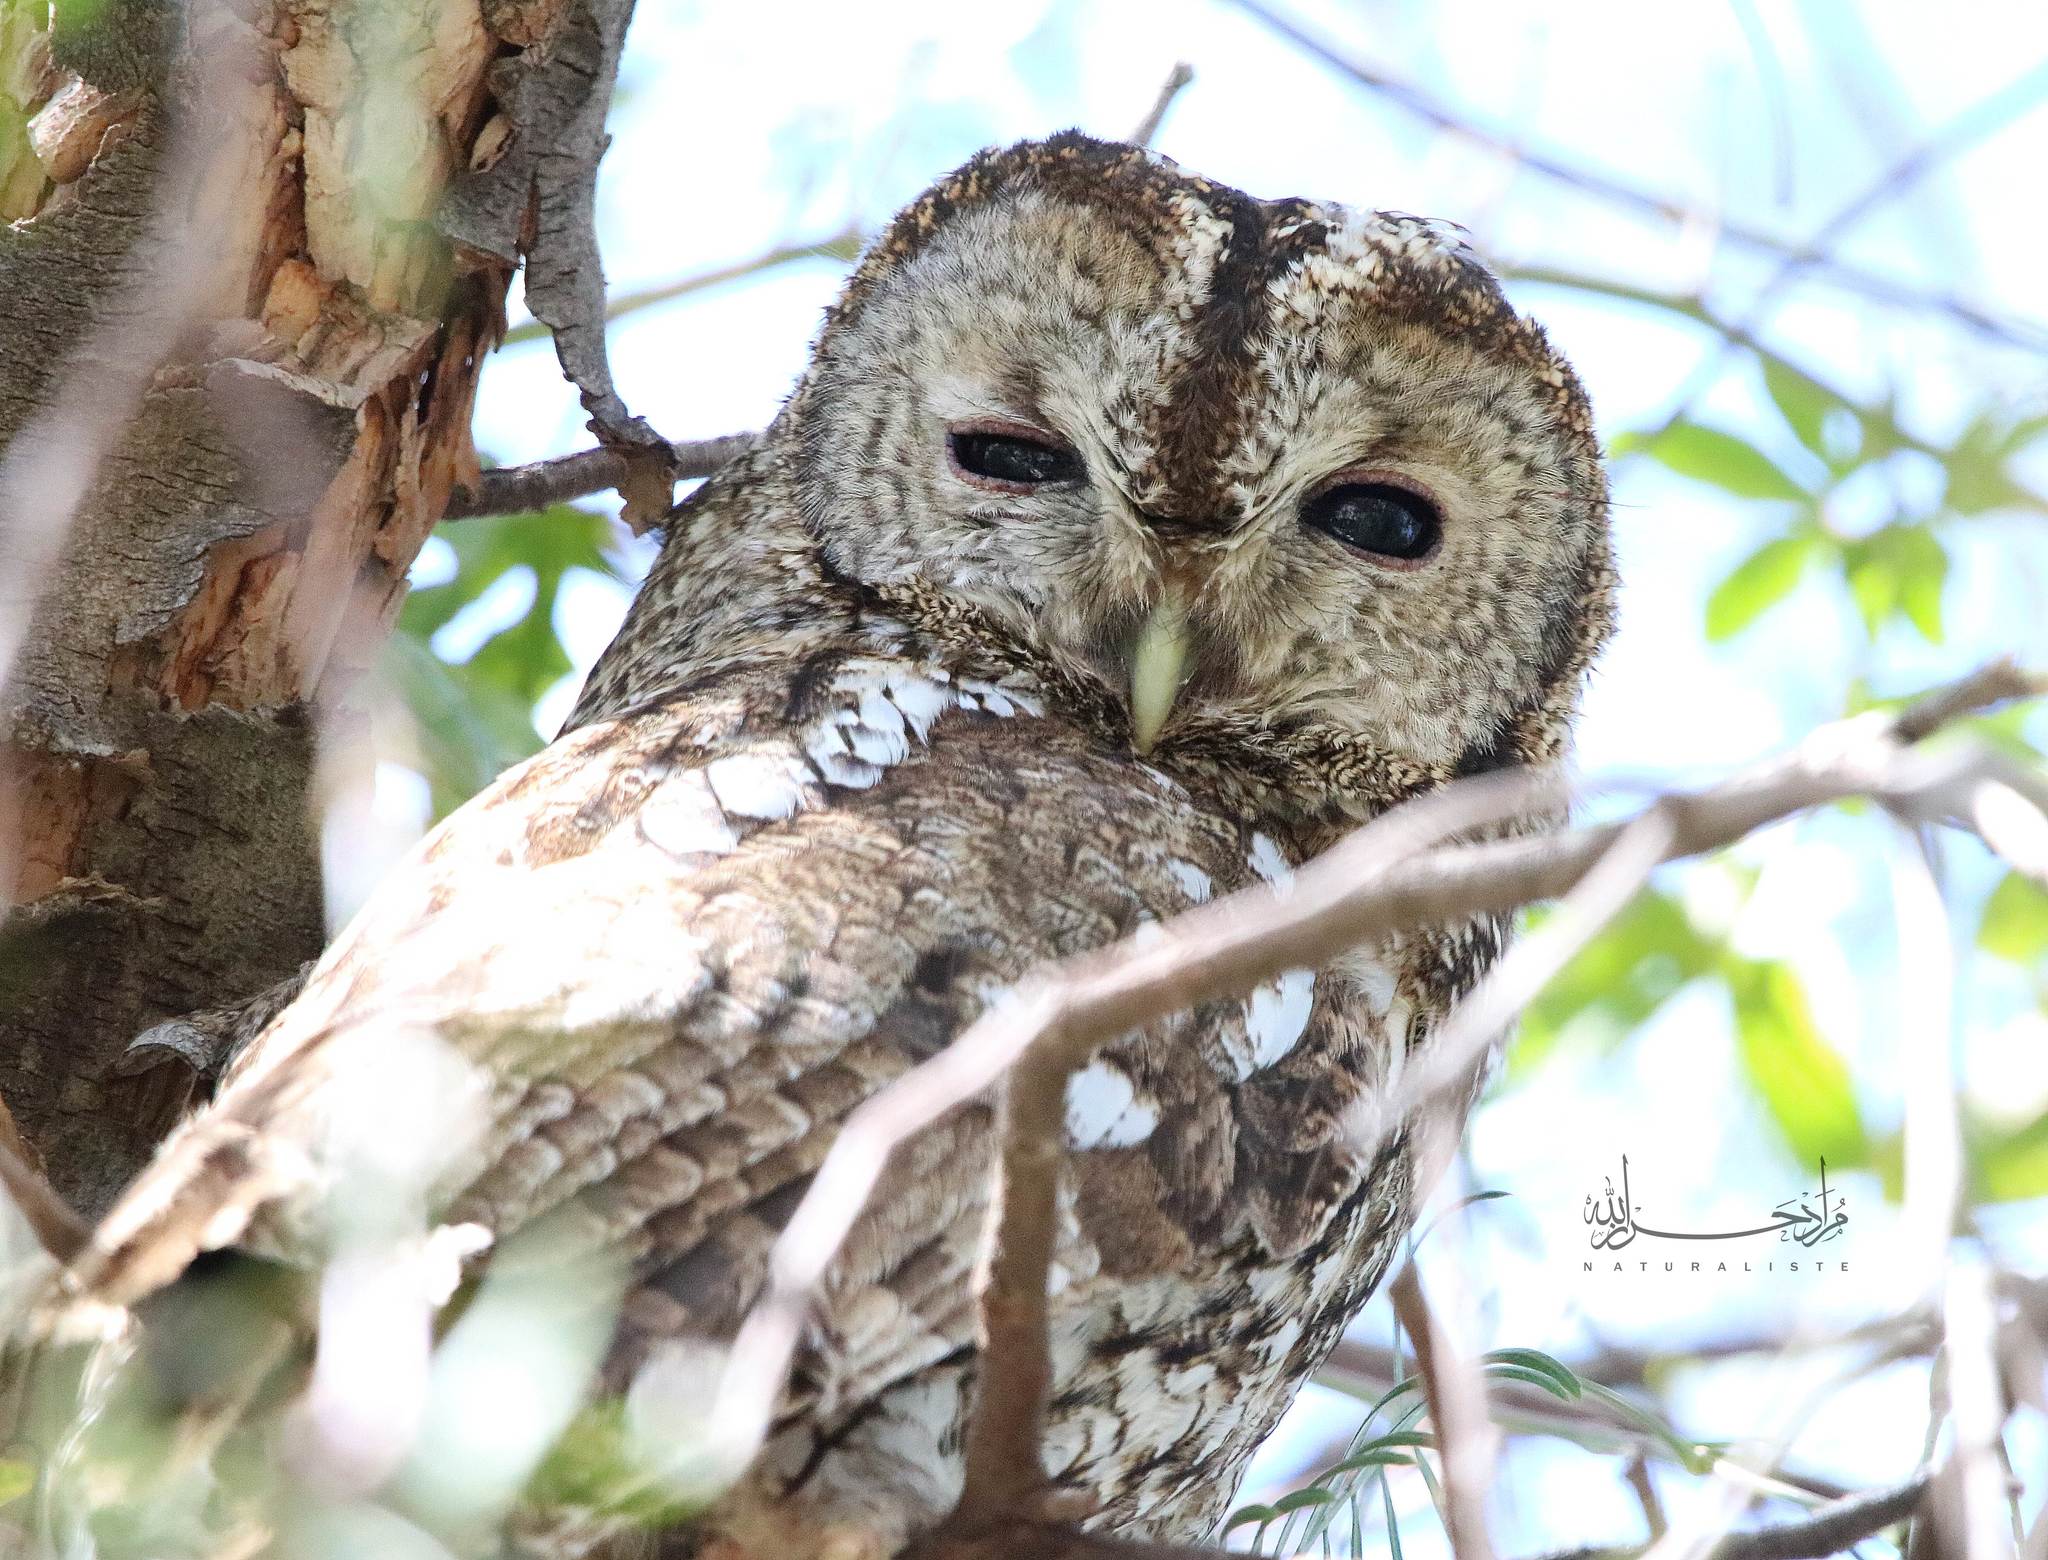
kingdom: Animalia
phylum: Chordata
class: Aves
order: Strigiformes
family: Strigidae
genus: Strix
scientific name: Strix aluco
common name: Tawny owl
